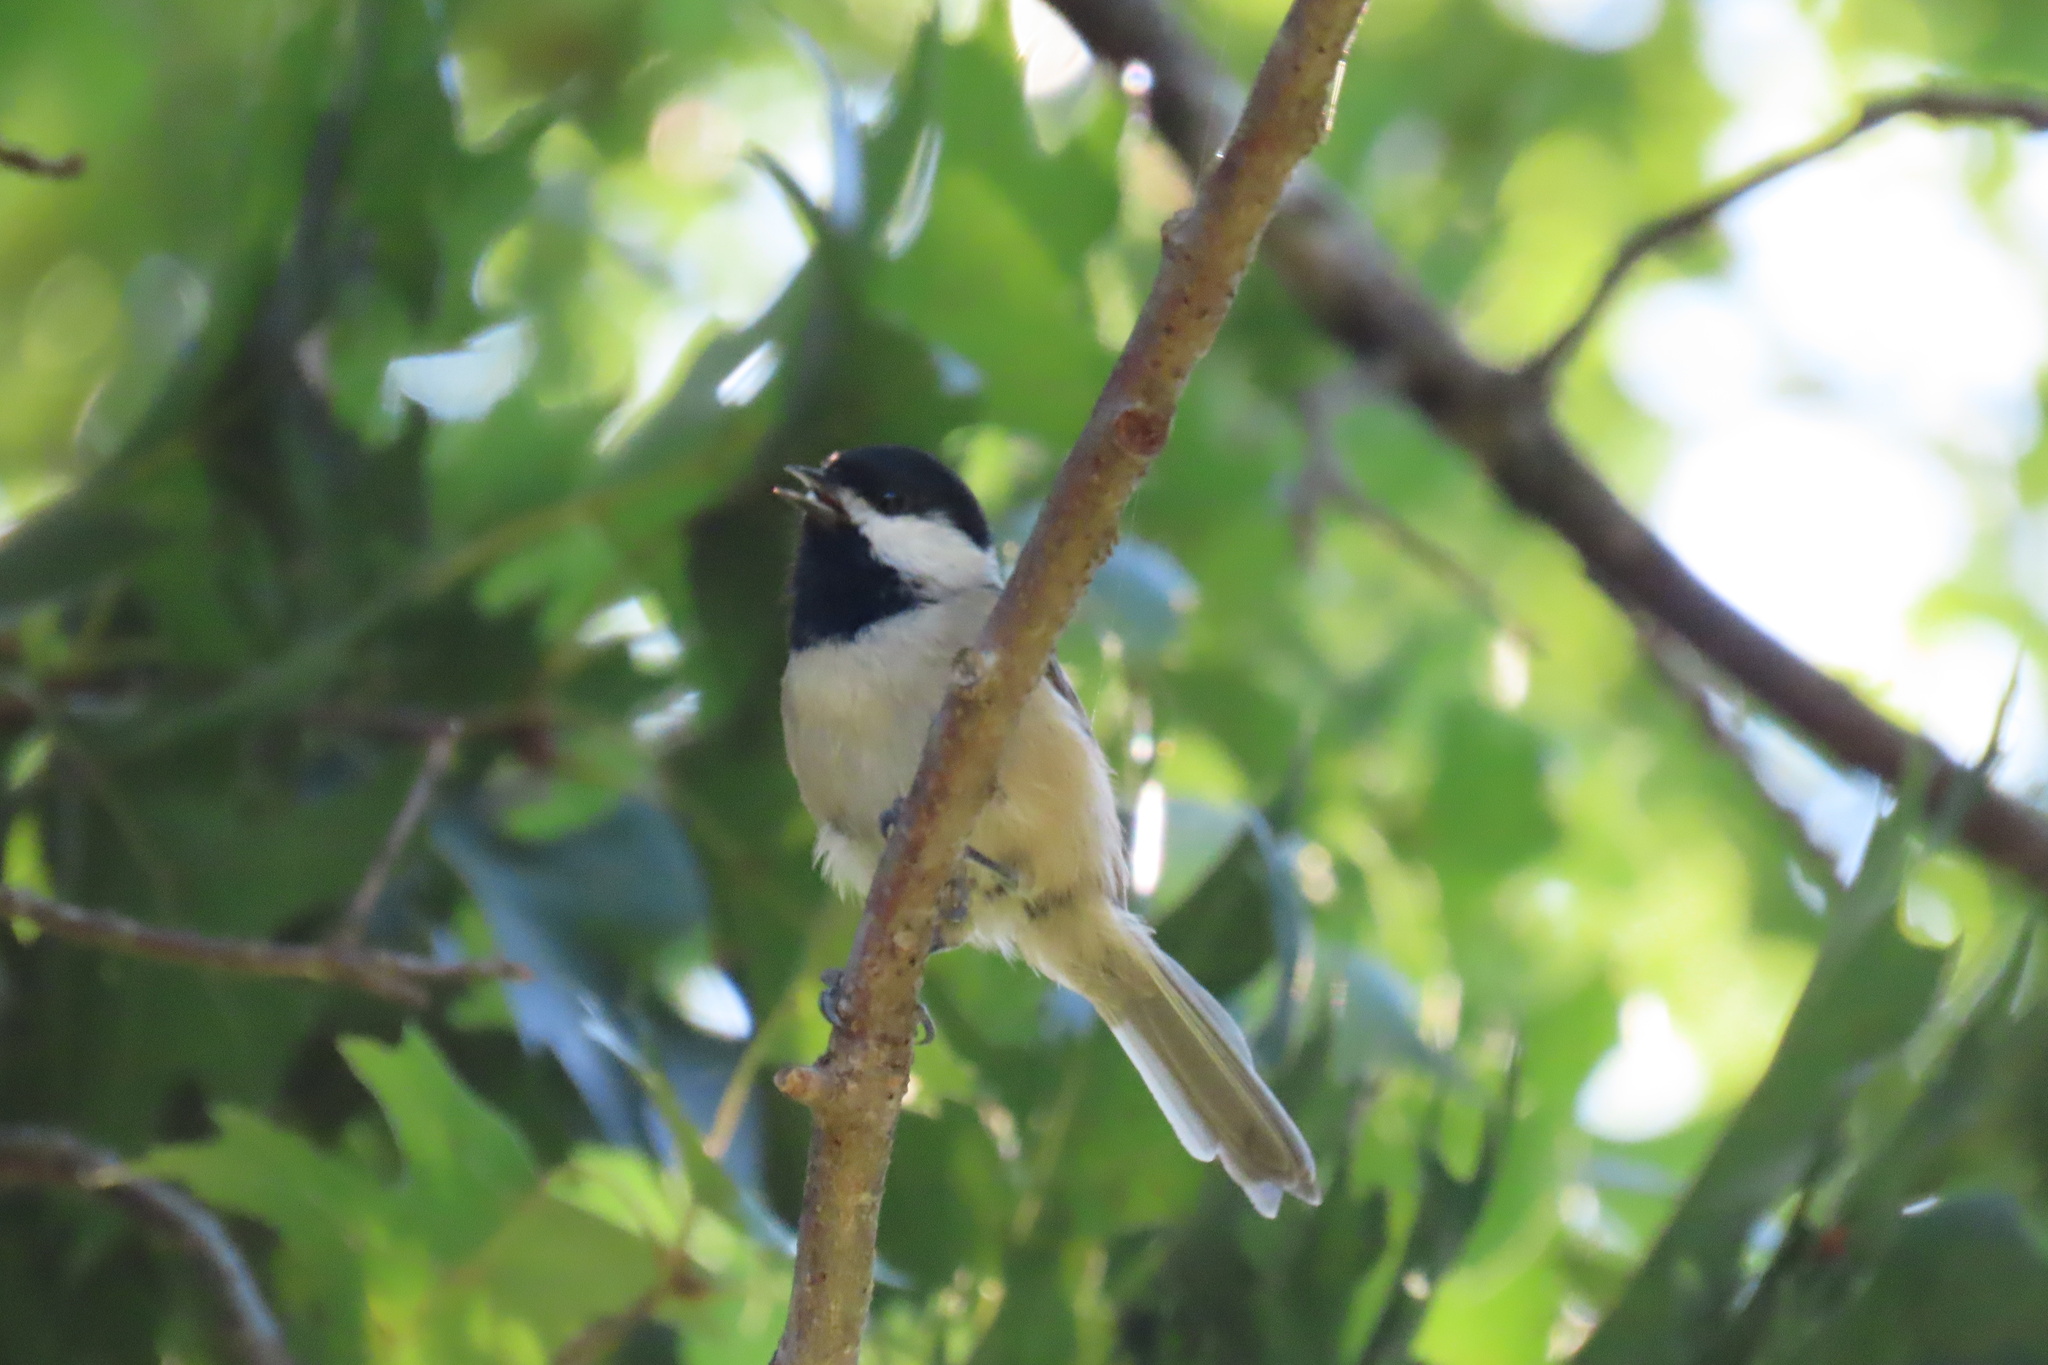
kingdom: Animalia
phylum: Chordata
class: Aves
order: Passeriformes
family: Paridae
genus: Poecile
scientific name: Poecile carolinensis
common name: Carolina chickadee
